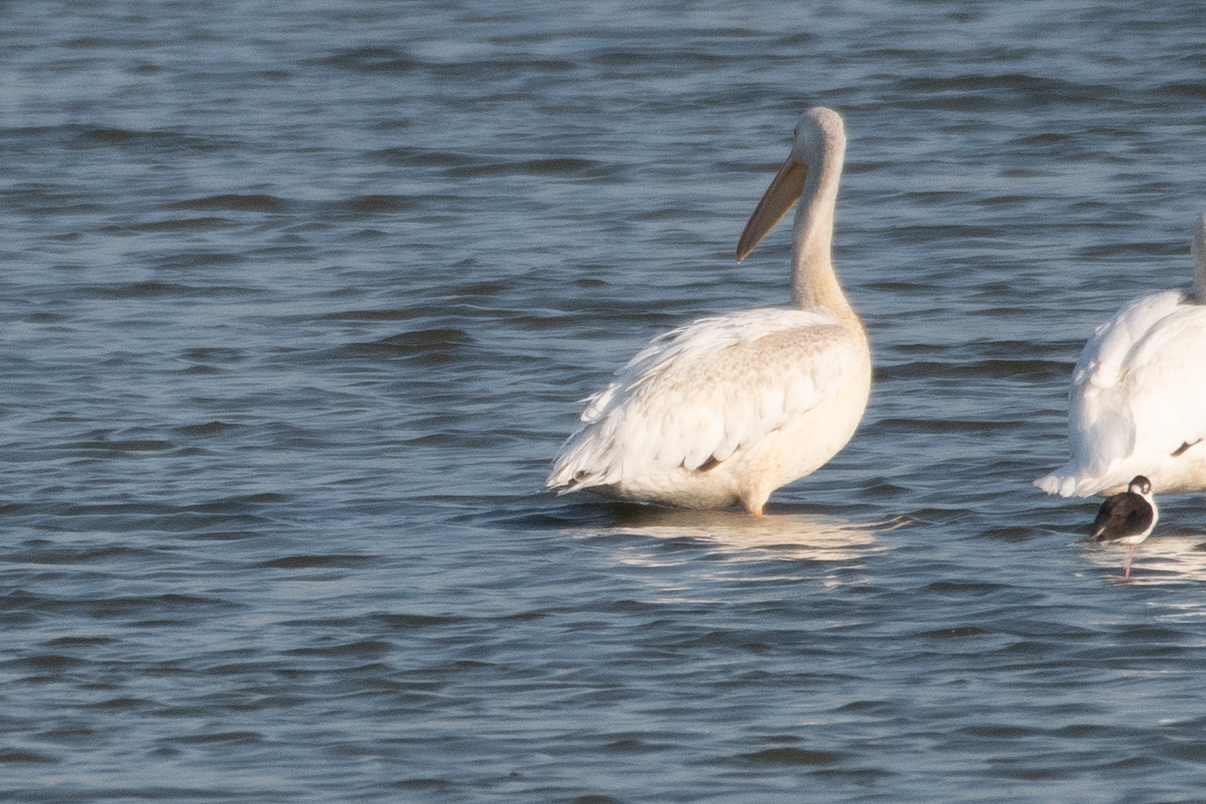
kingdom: Animalia
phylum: Chordata
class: Aves
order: Pelecaniformes
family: Pelecanidae
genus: Pelecanus
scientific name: Pelecanus erythrorhynchos
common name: American white pelican
